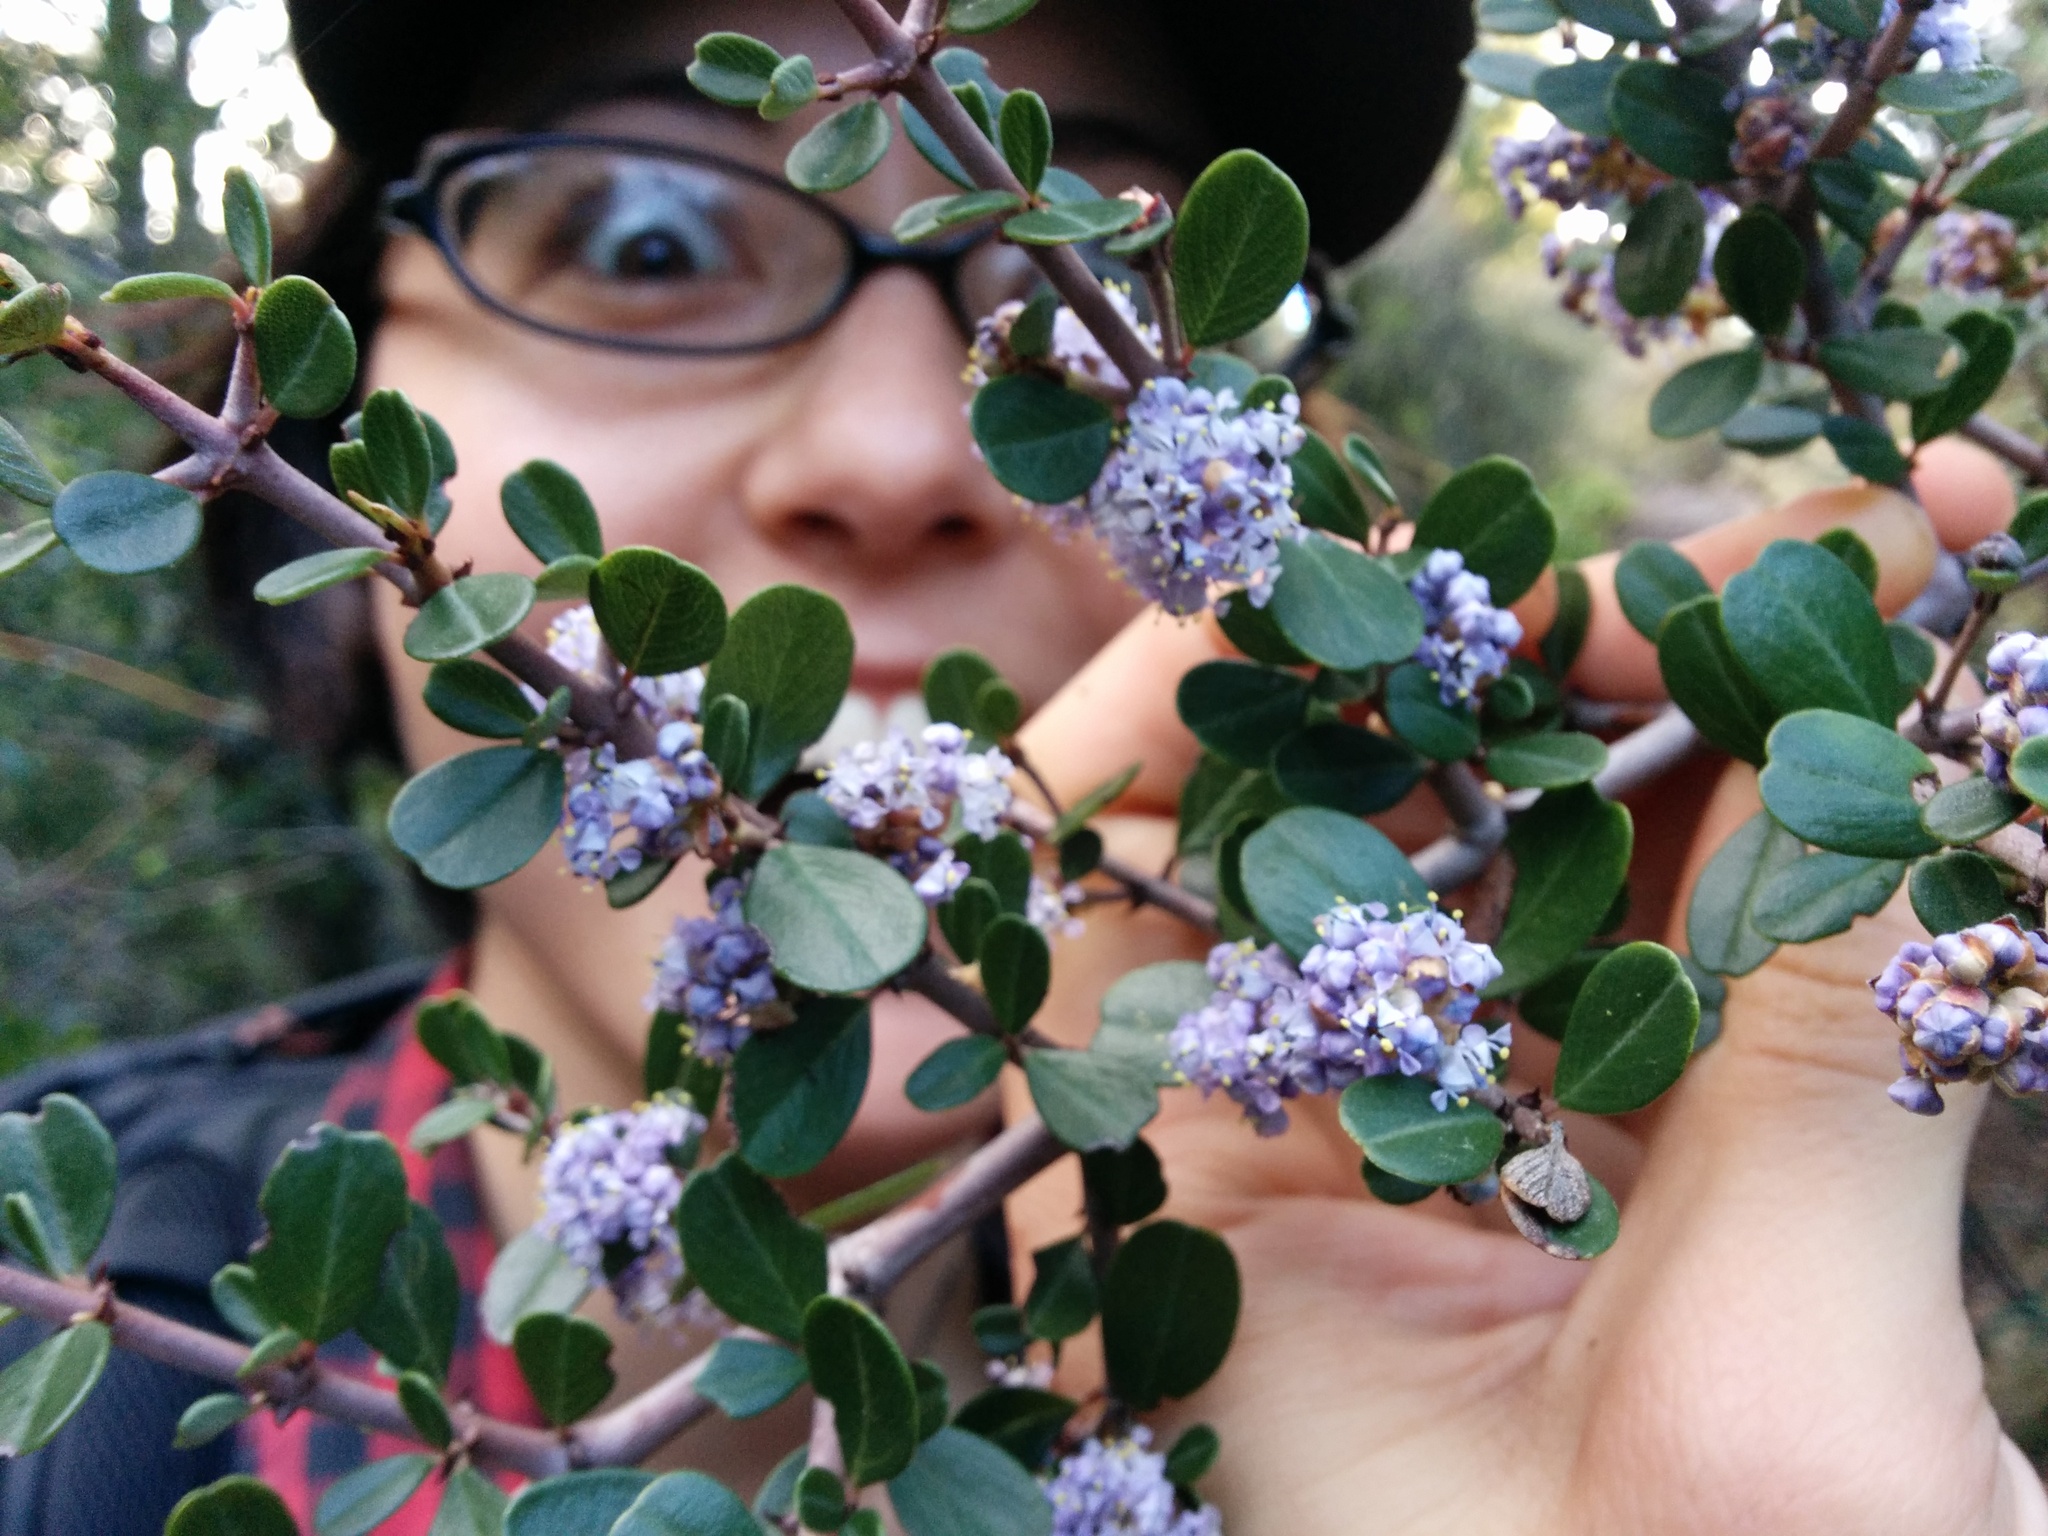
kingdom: Plantae
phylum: Tracheophyta
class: Magnoliopsida
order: Rosales
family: Rhamnaceae
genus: Ceanothus
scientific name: Ceanothus cuneatus
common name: Cuneate ceanothus
